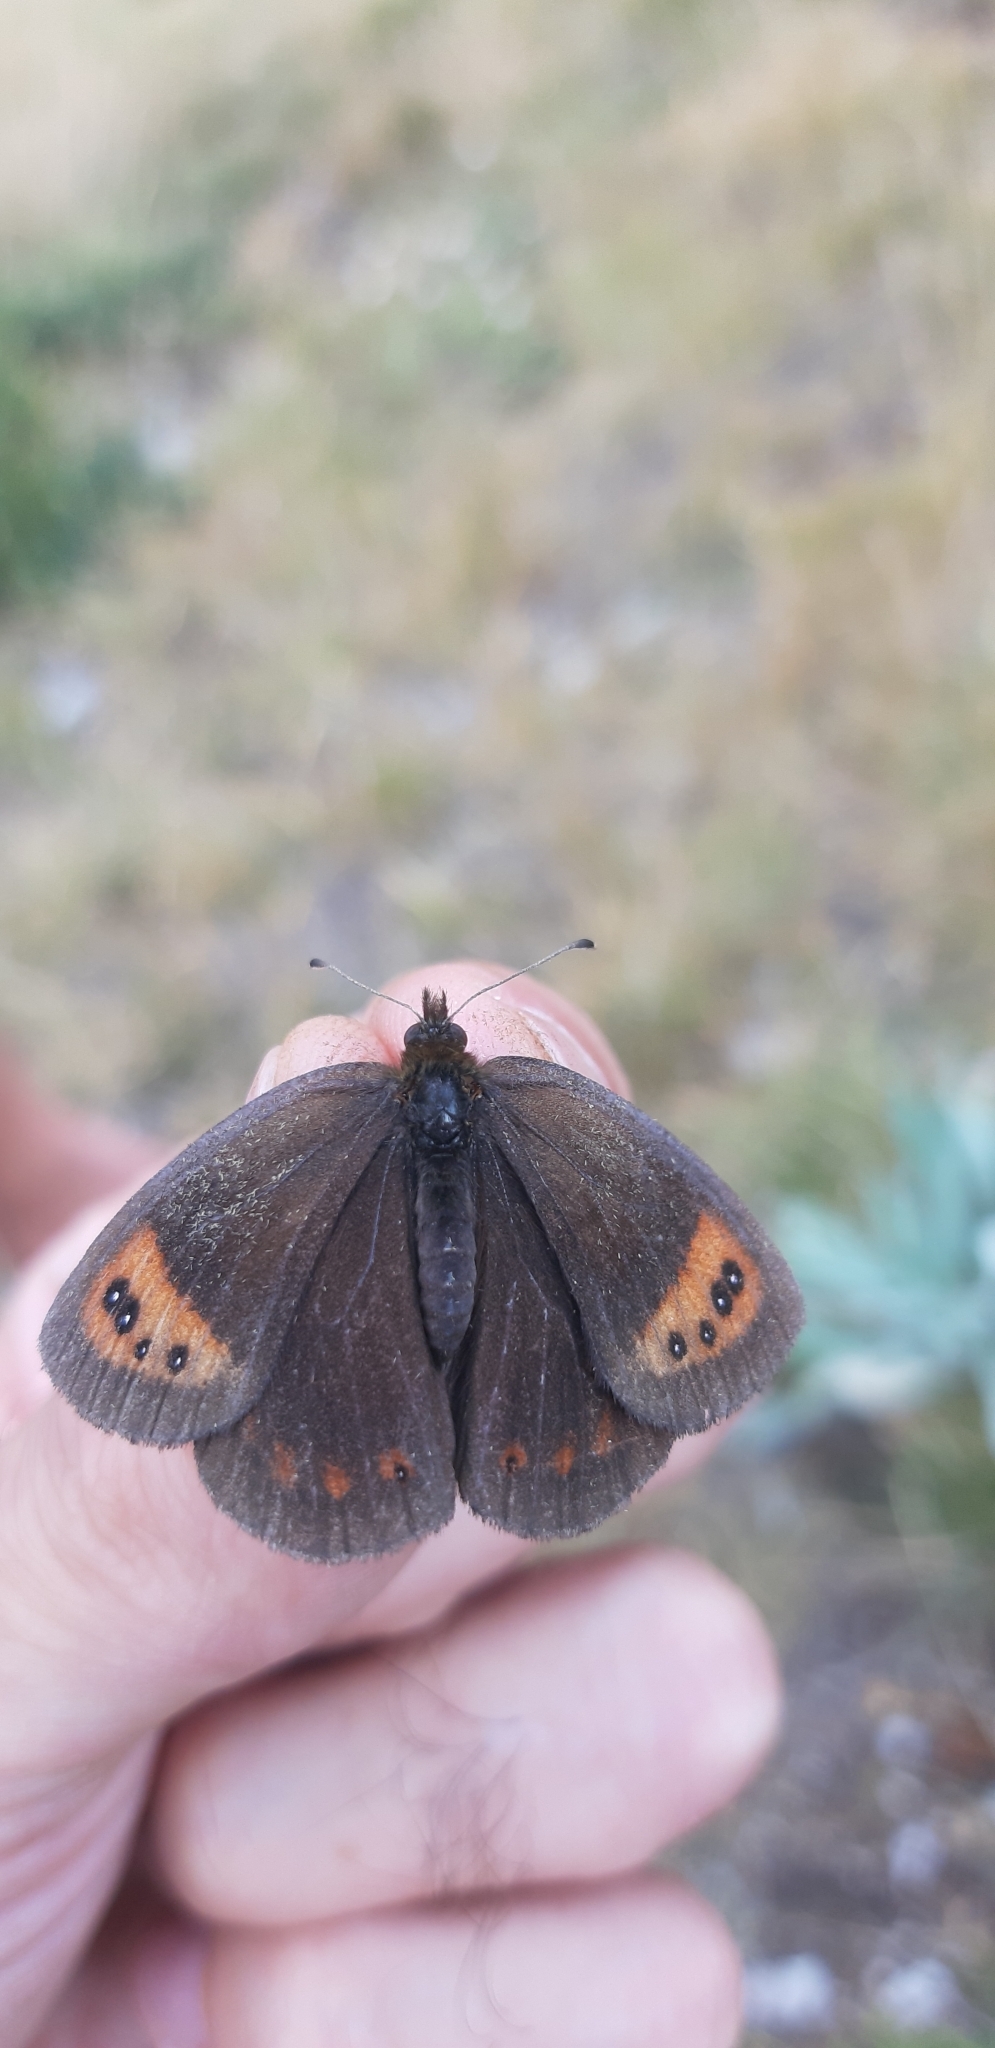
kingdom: Animalia
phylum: Arthropoda
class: Insecta
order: Lepidoptera
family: Nymphalidae
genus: Erebia
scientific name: Erebia neoridas
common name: Autumn ringlet
